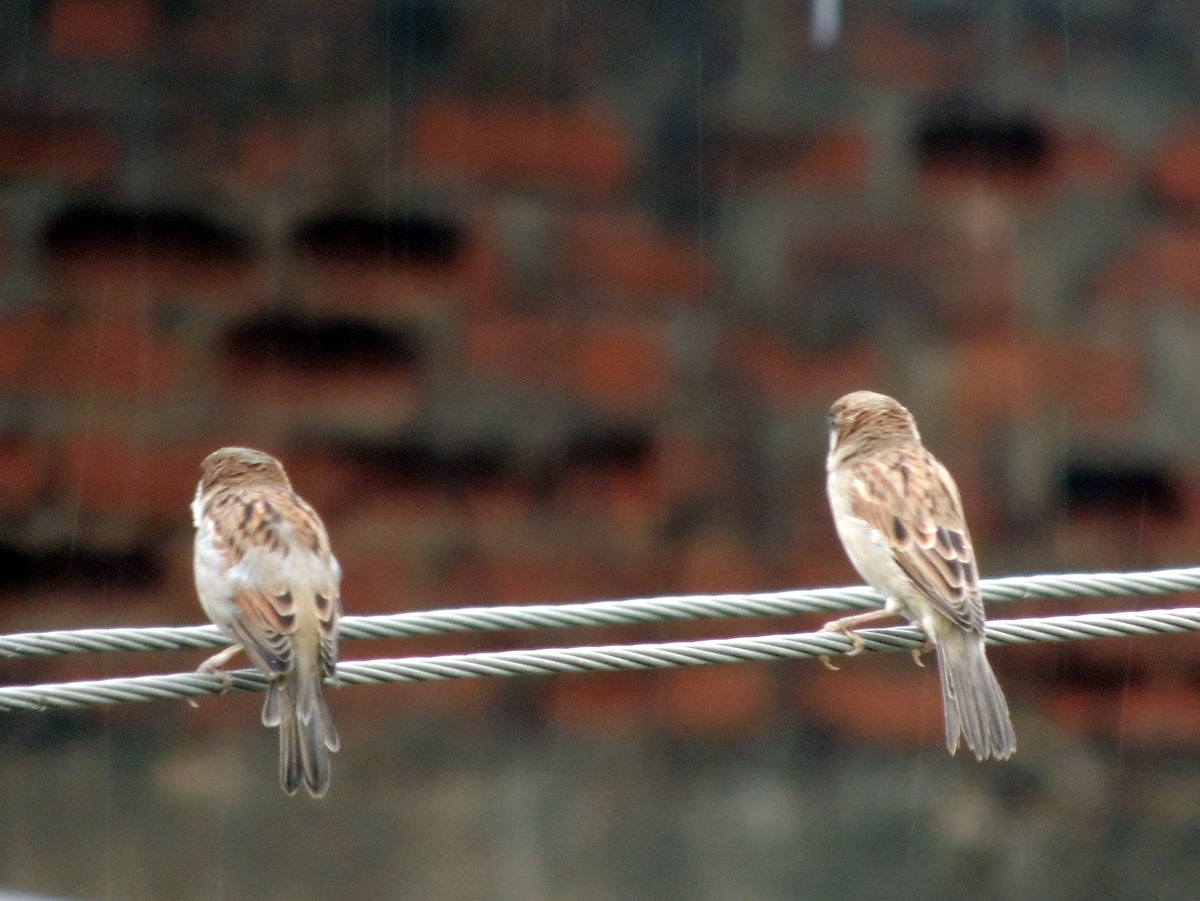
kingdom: Animalia
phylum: Chordata
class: Aves
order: Passeriformes
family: Passeridae
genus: Passer
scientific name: Passer domesticus
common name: House sparrow
